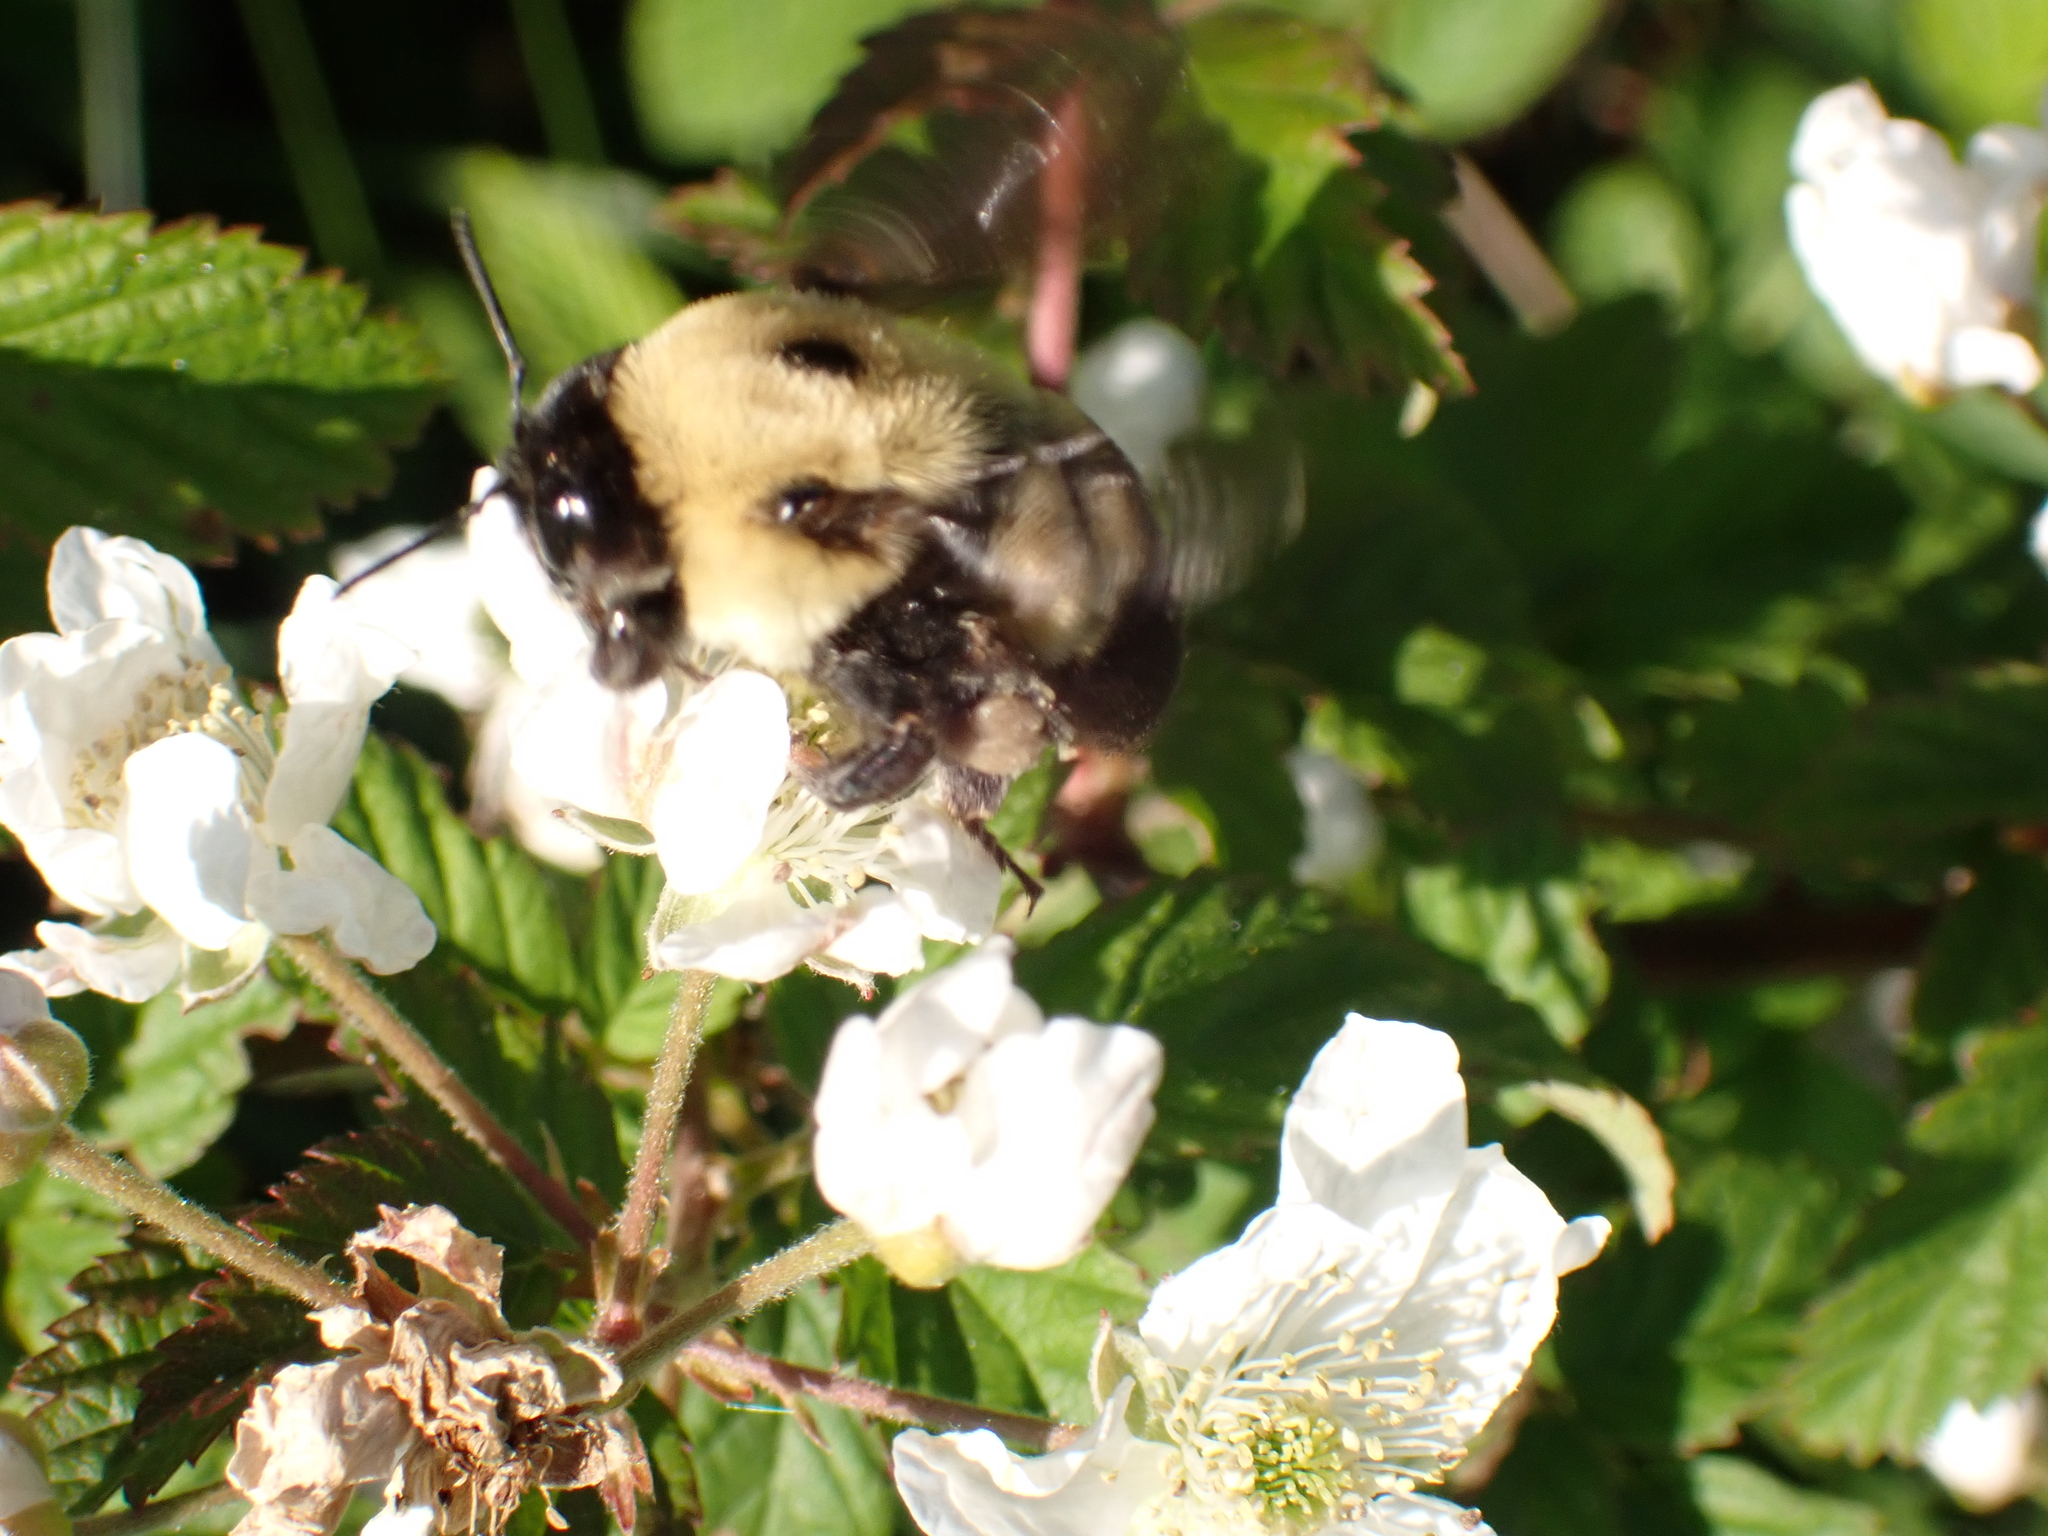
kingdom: Animalia
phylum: Arthropoda
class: Insecta
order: Hymenoptera
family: Apidae
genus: Bombus
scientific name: Bombus griseocollis
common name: Brown-belted bumble bee
